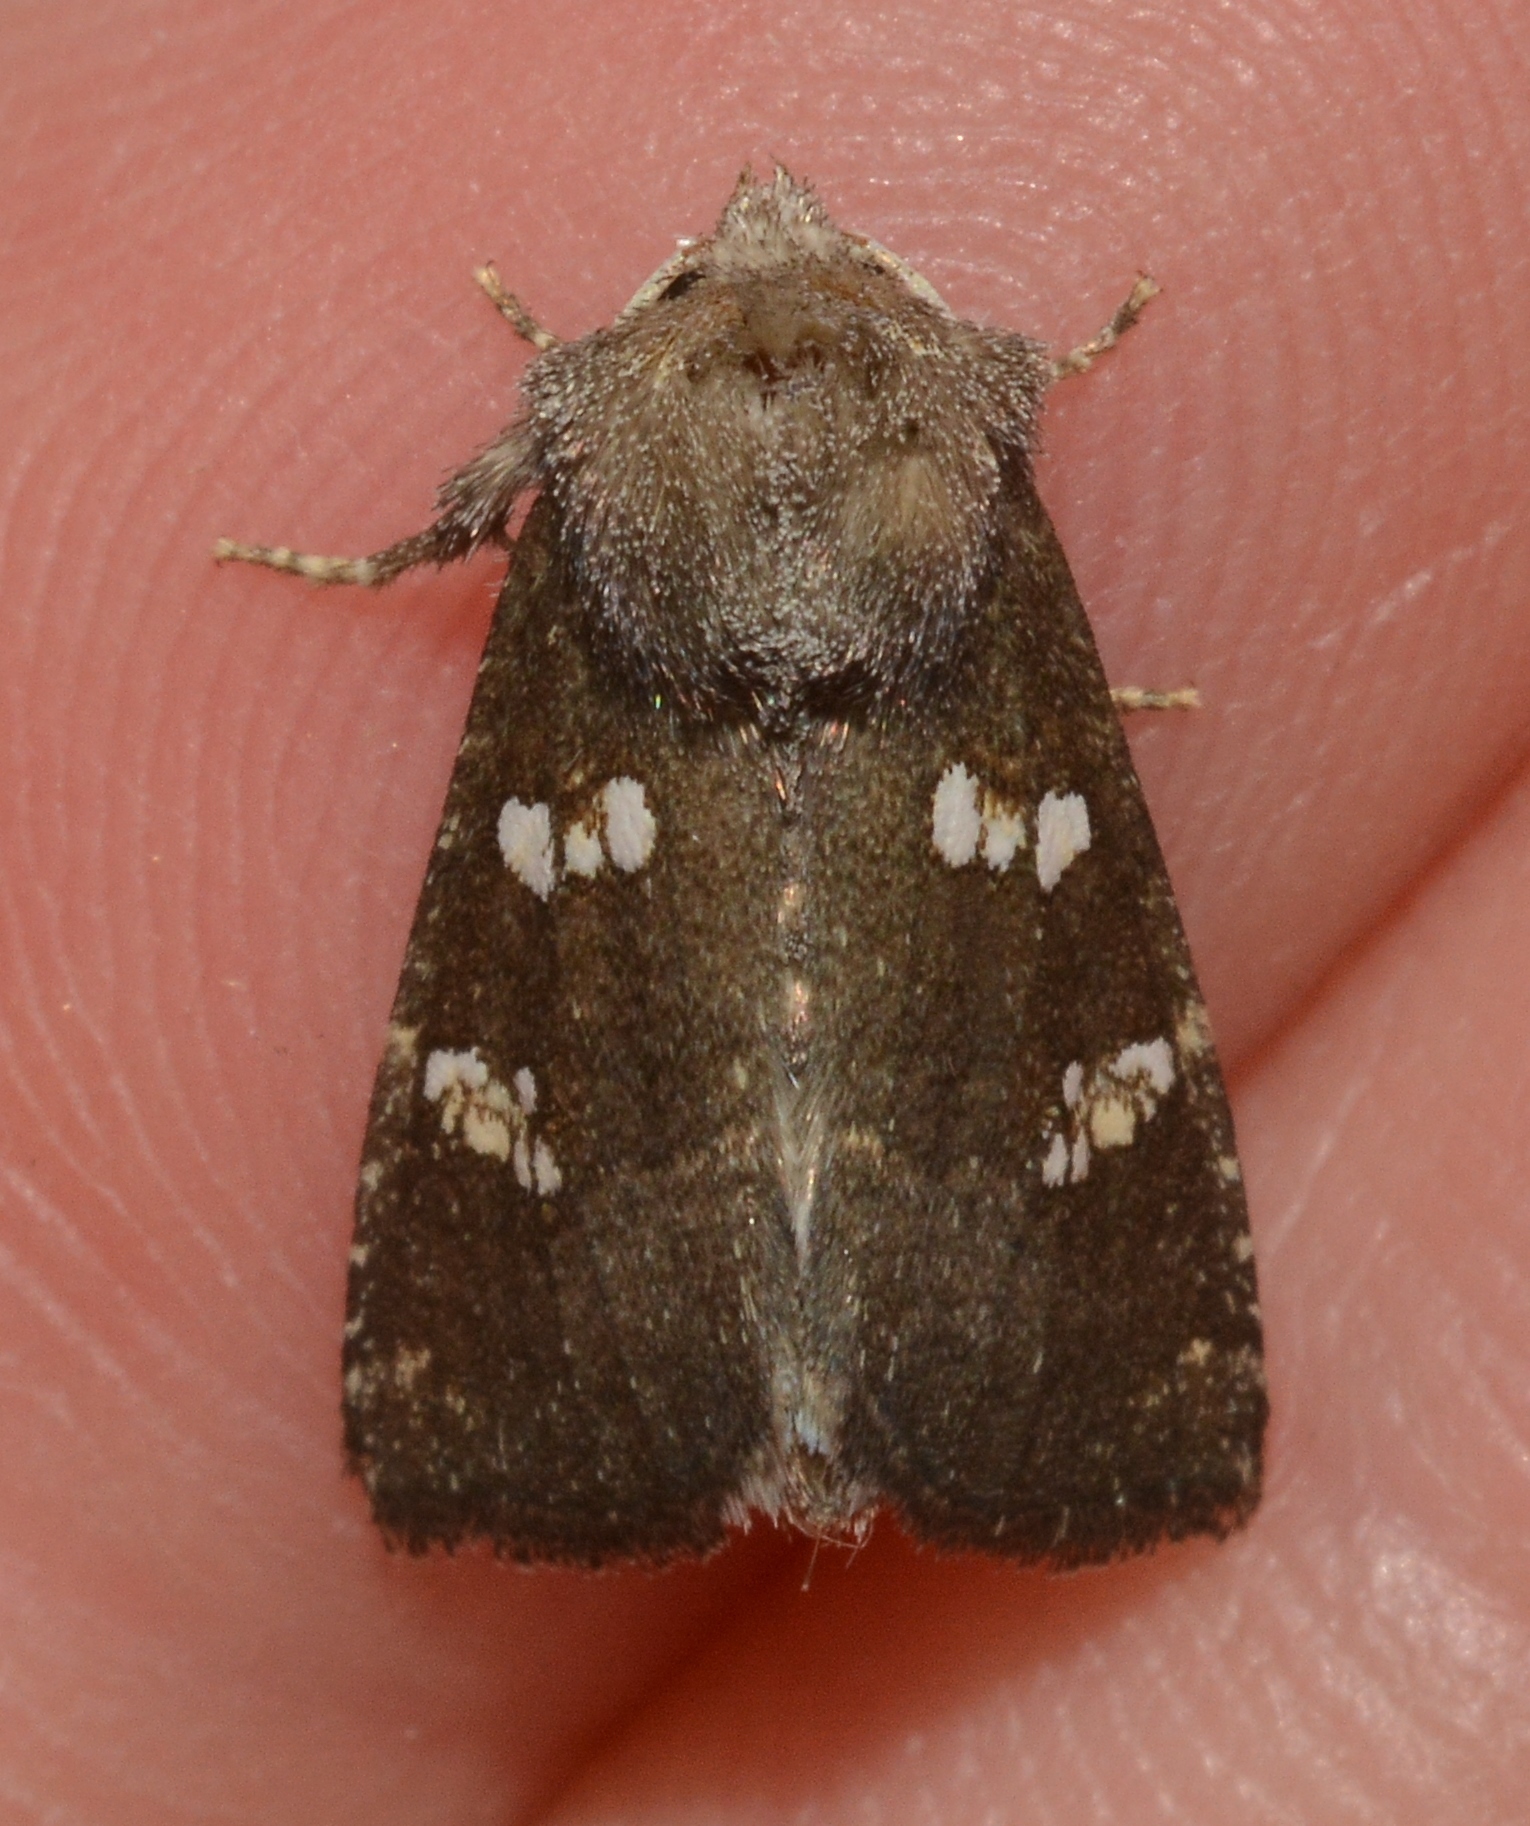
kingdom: Animalia
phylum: Arthropoda
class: Insecta
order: Lepidoptera
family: Noctuidae
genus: Papaipema
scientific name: Papaipema limpida
